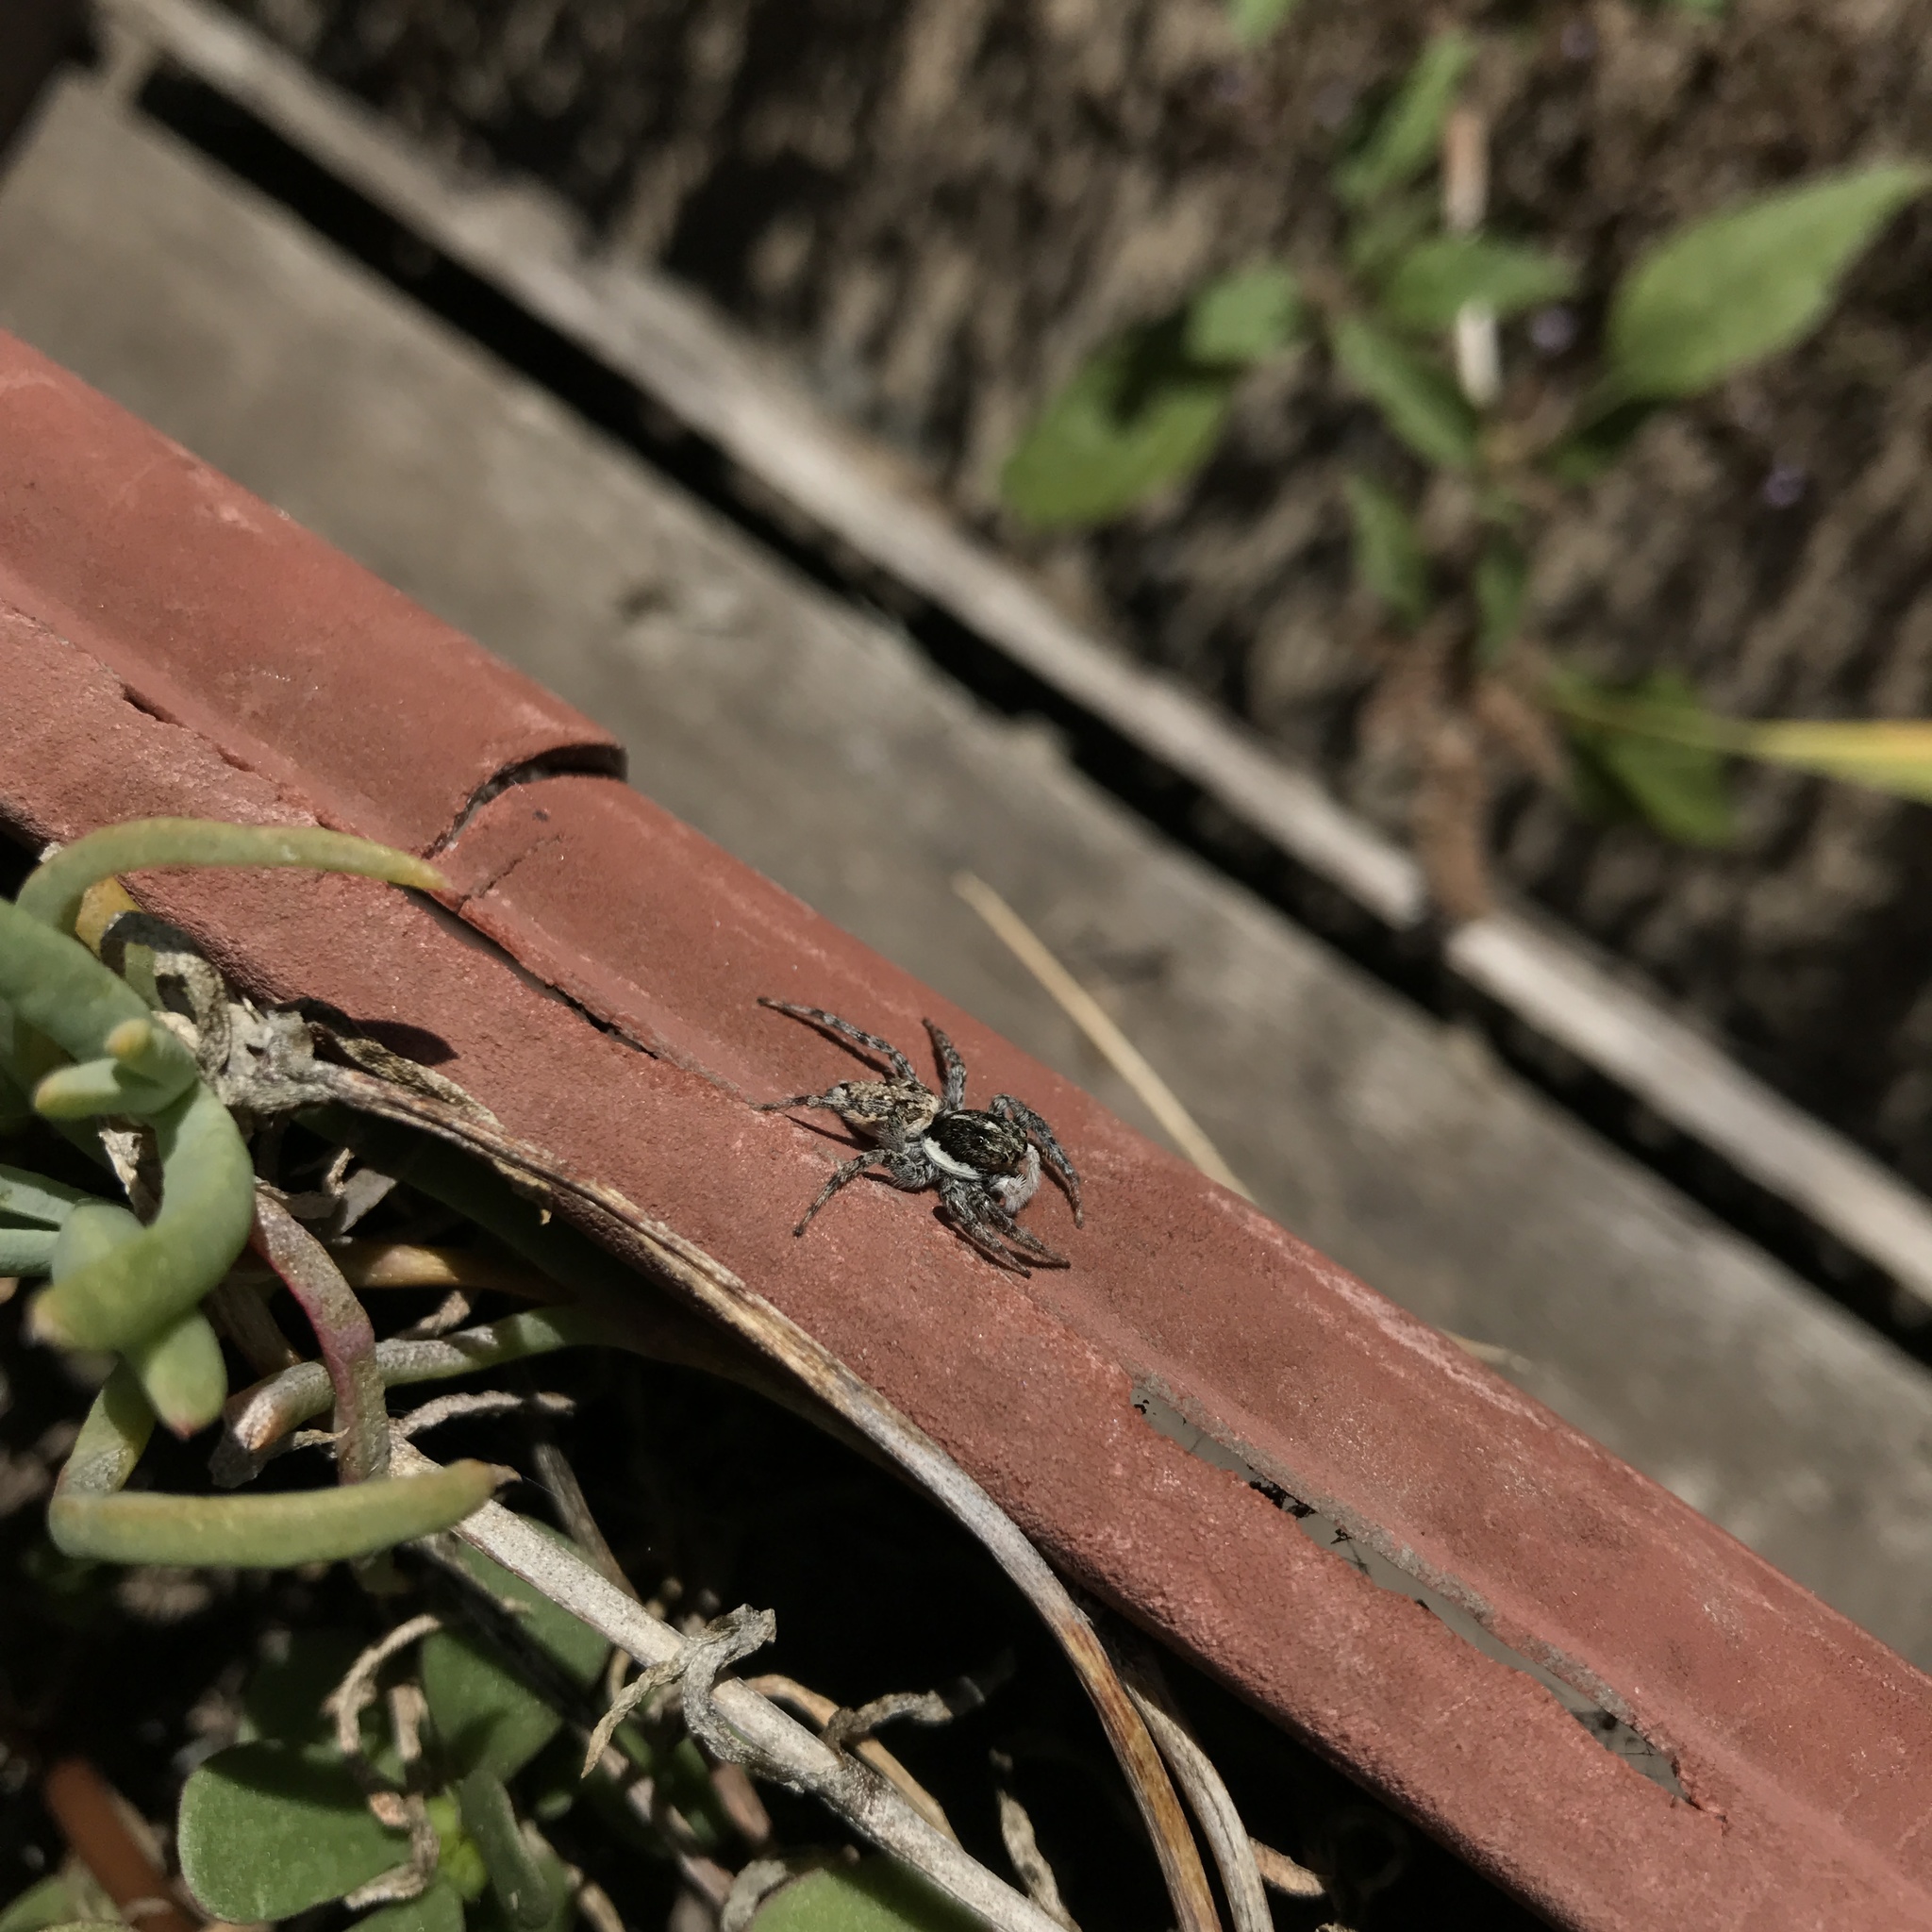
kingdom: Animalia
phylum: Arthropoda
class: Arachnida
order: Araneae
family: Salticidae
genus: Menemerus
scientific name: Menemerus semilimbatus
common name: Jumping spider
